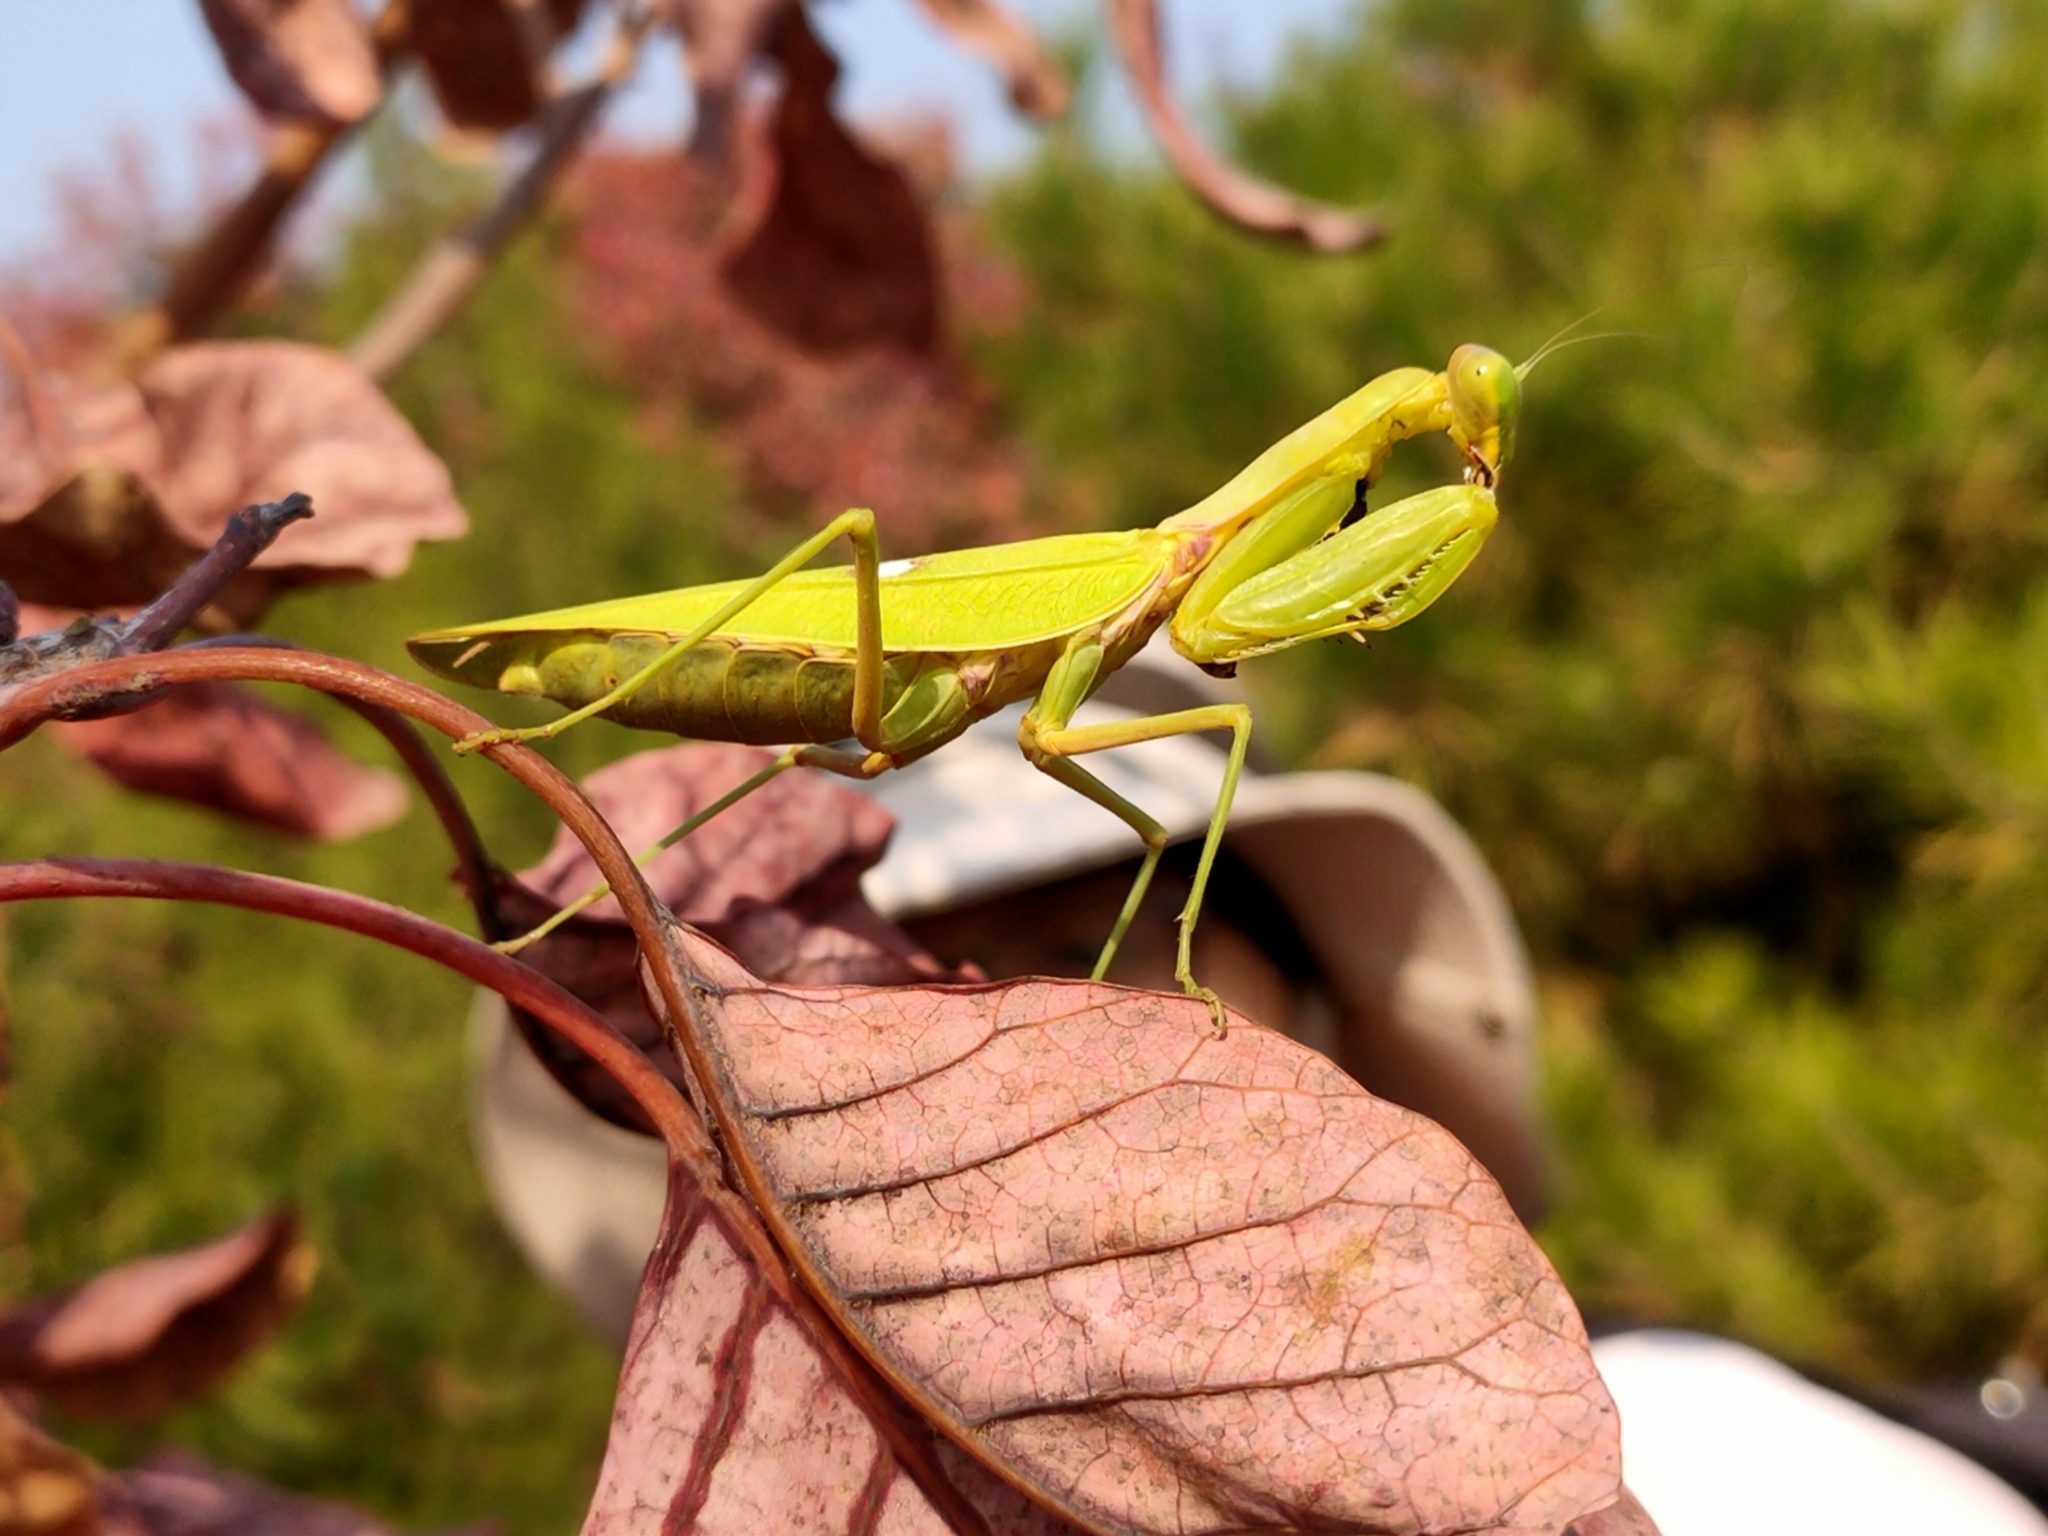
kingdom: Animalia
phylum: Arthropoda
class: Insecta
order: Mantodea
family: Mantidae
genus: Hierodula
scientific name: Hierodula patellifera
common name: Asian mantis
